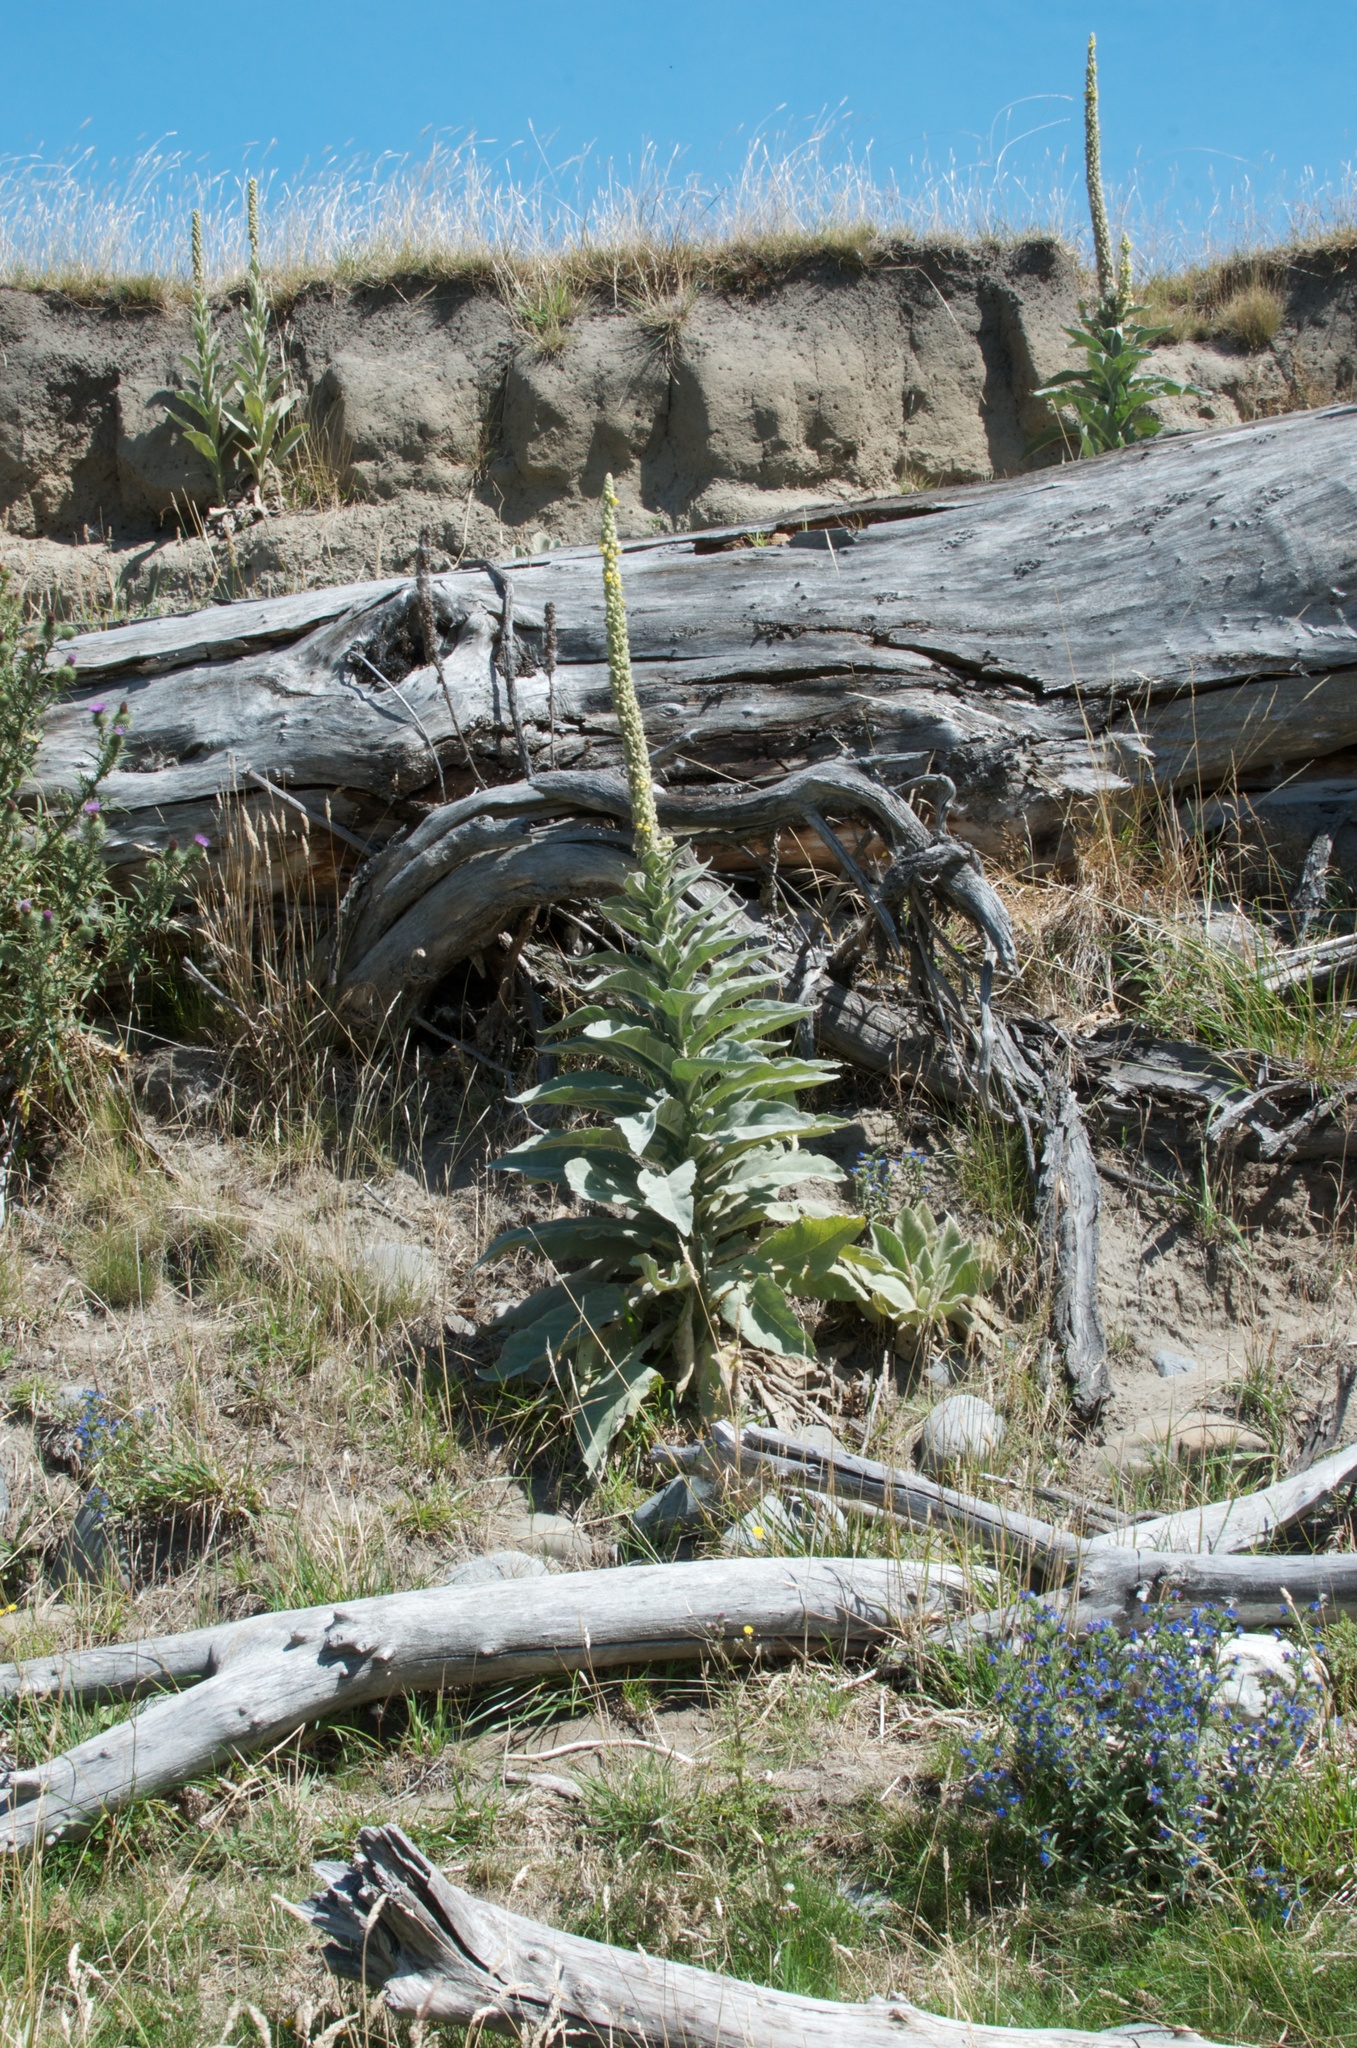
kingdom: Plantae
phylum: Tracheophyta
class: Magnoliopsida
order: Lamiales
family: Scrophulariaceae
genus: Verbascum
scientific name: Verbascum thapsus
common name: Common mullein
